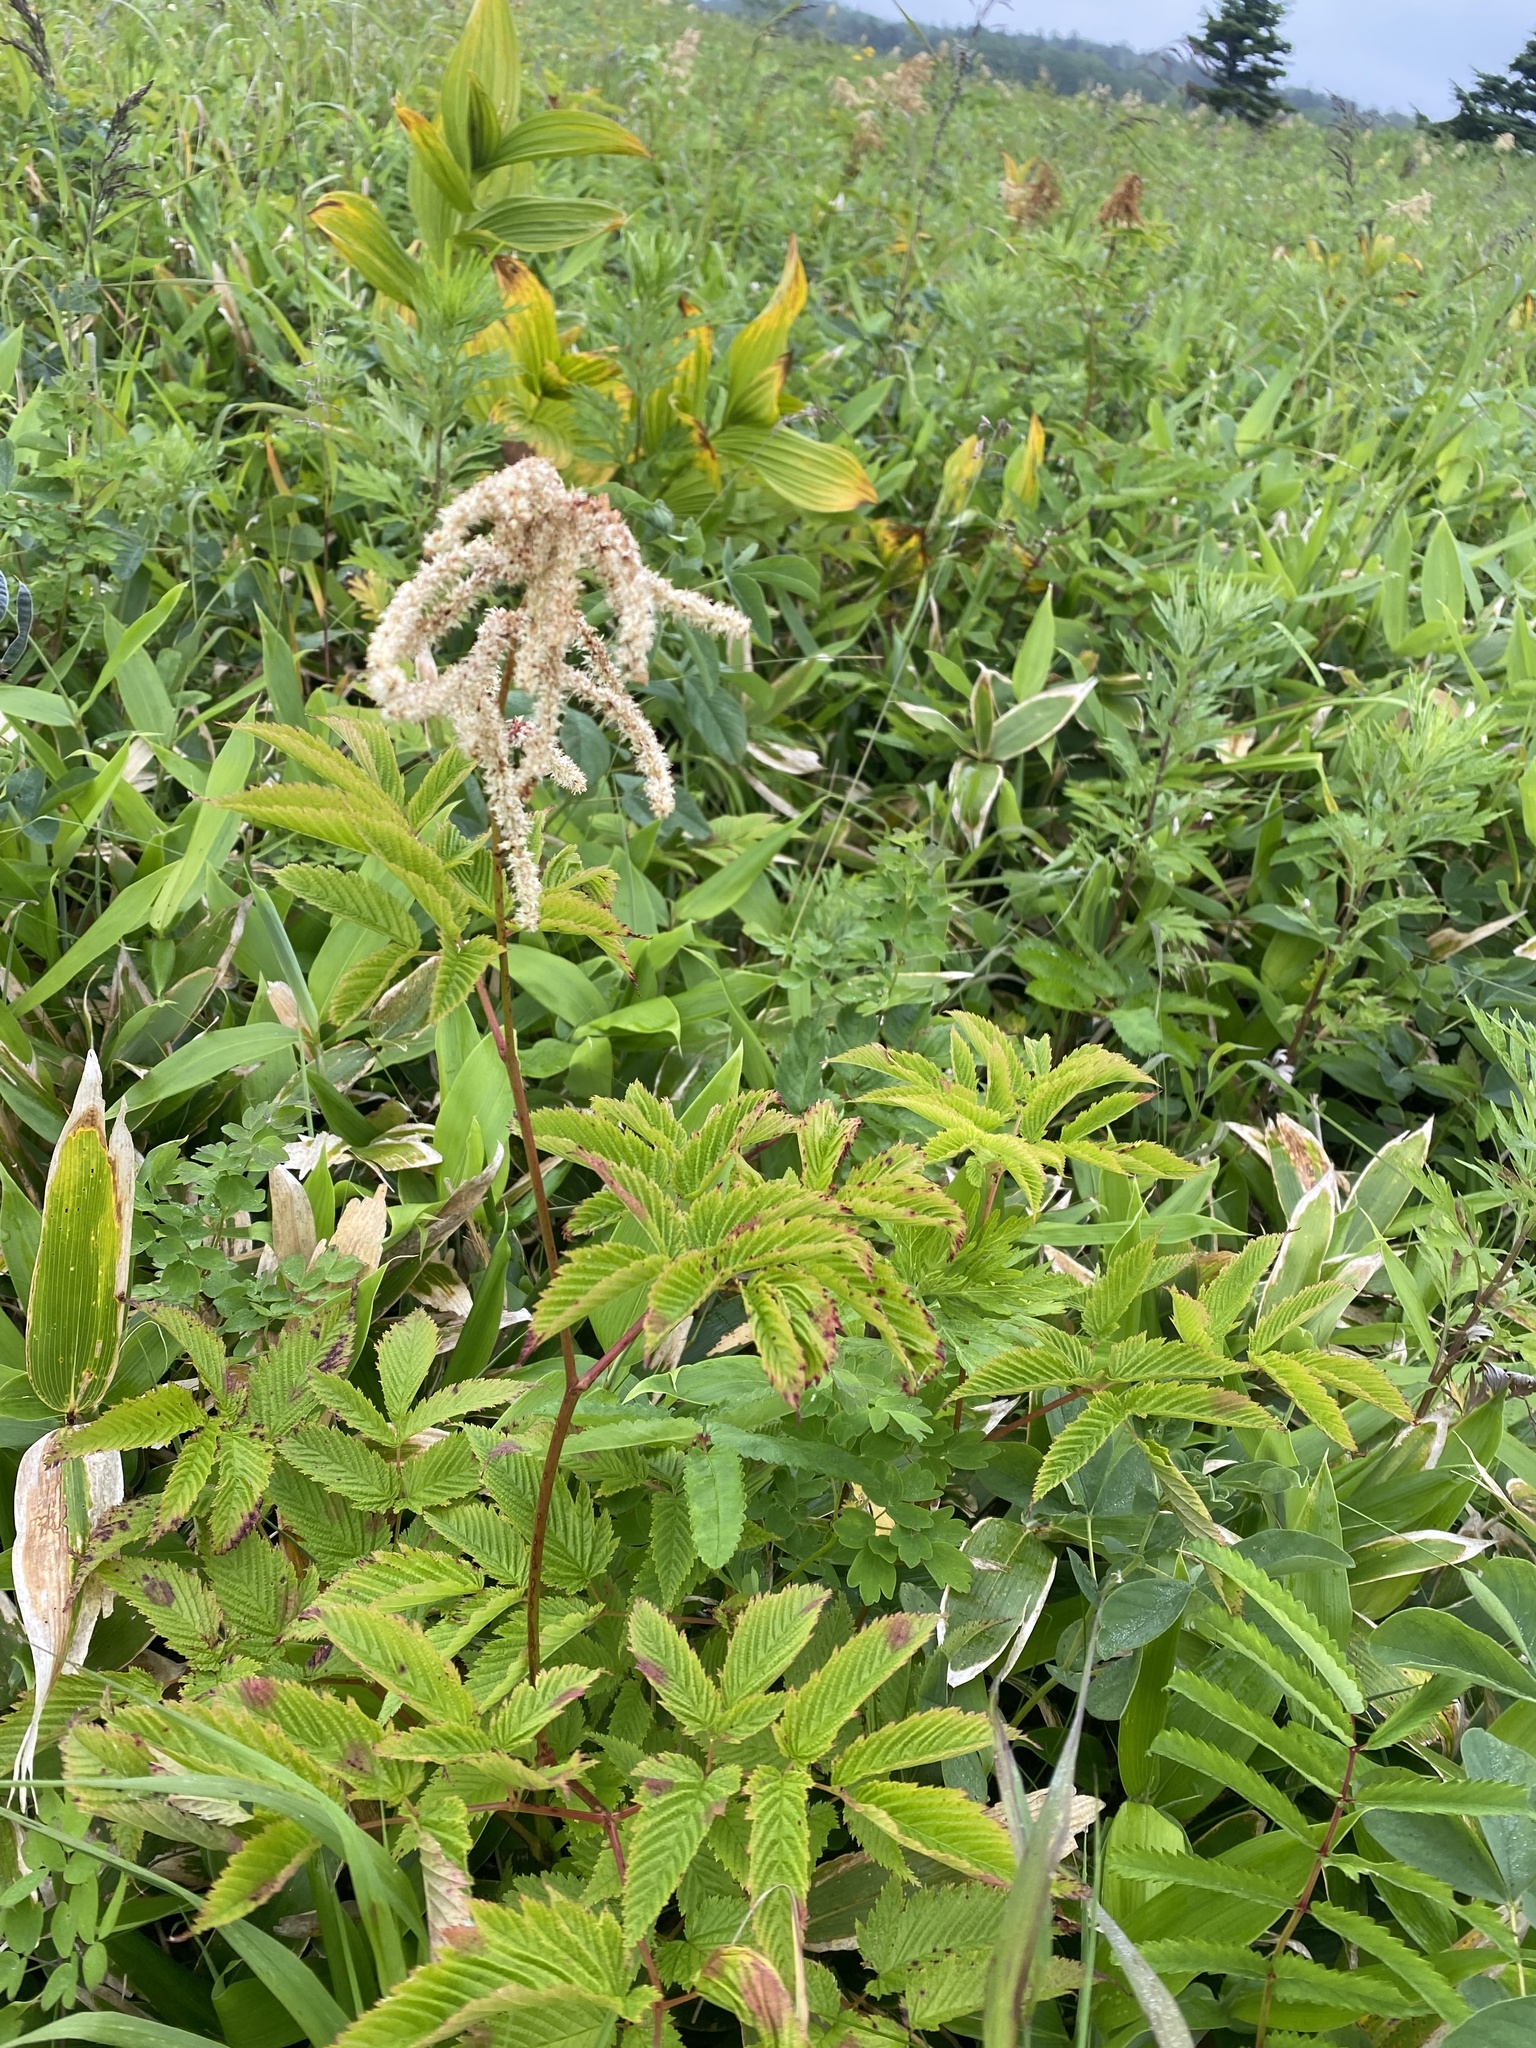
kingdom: Plantae
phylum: Tracheophyta
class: Magnoliopsida
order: Rosales
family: Rosaceae
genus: Aruncus
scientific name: Aruncus dioicus
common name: Buck's-beard
